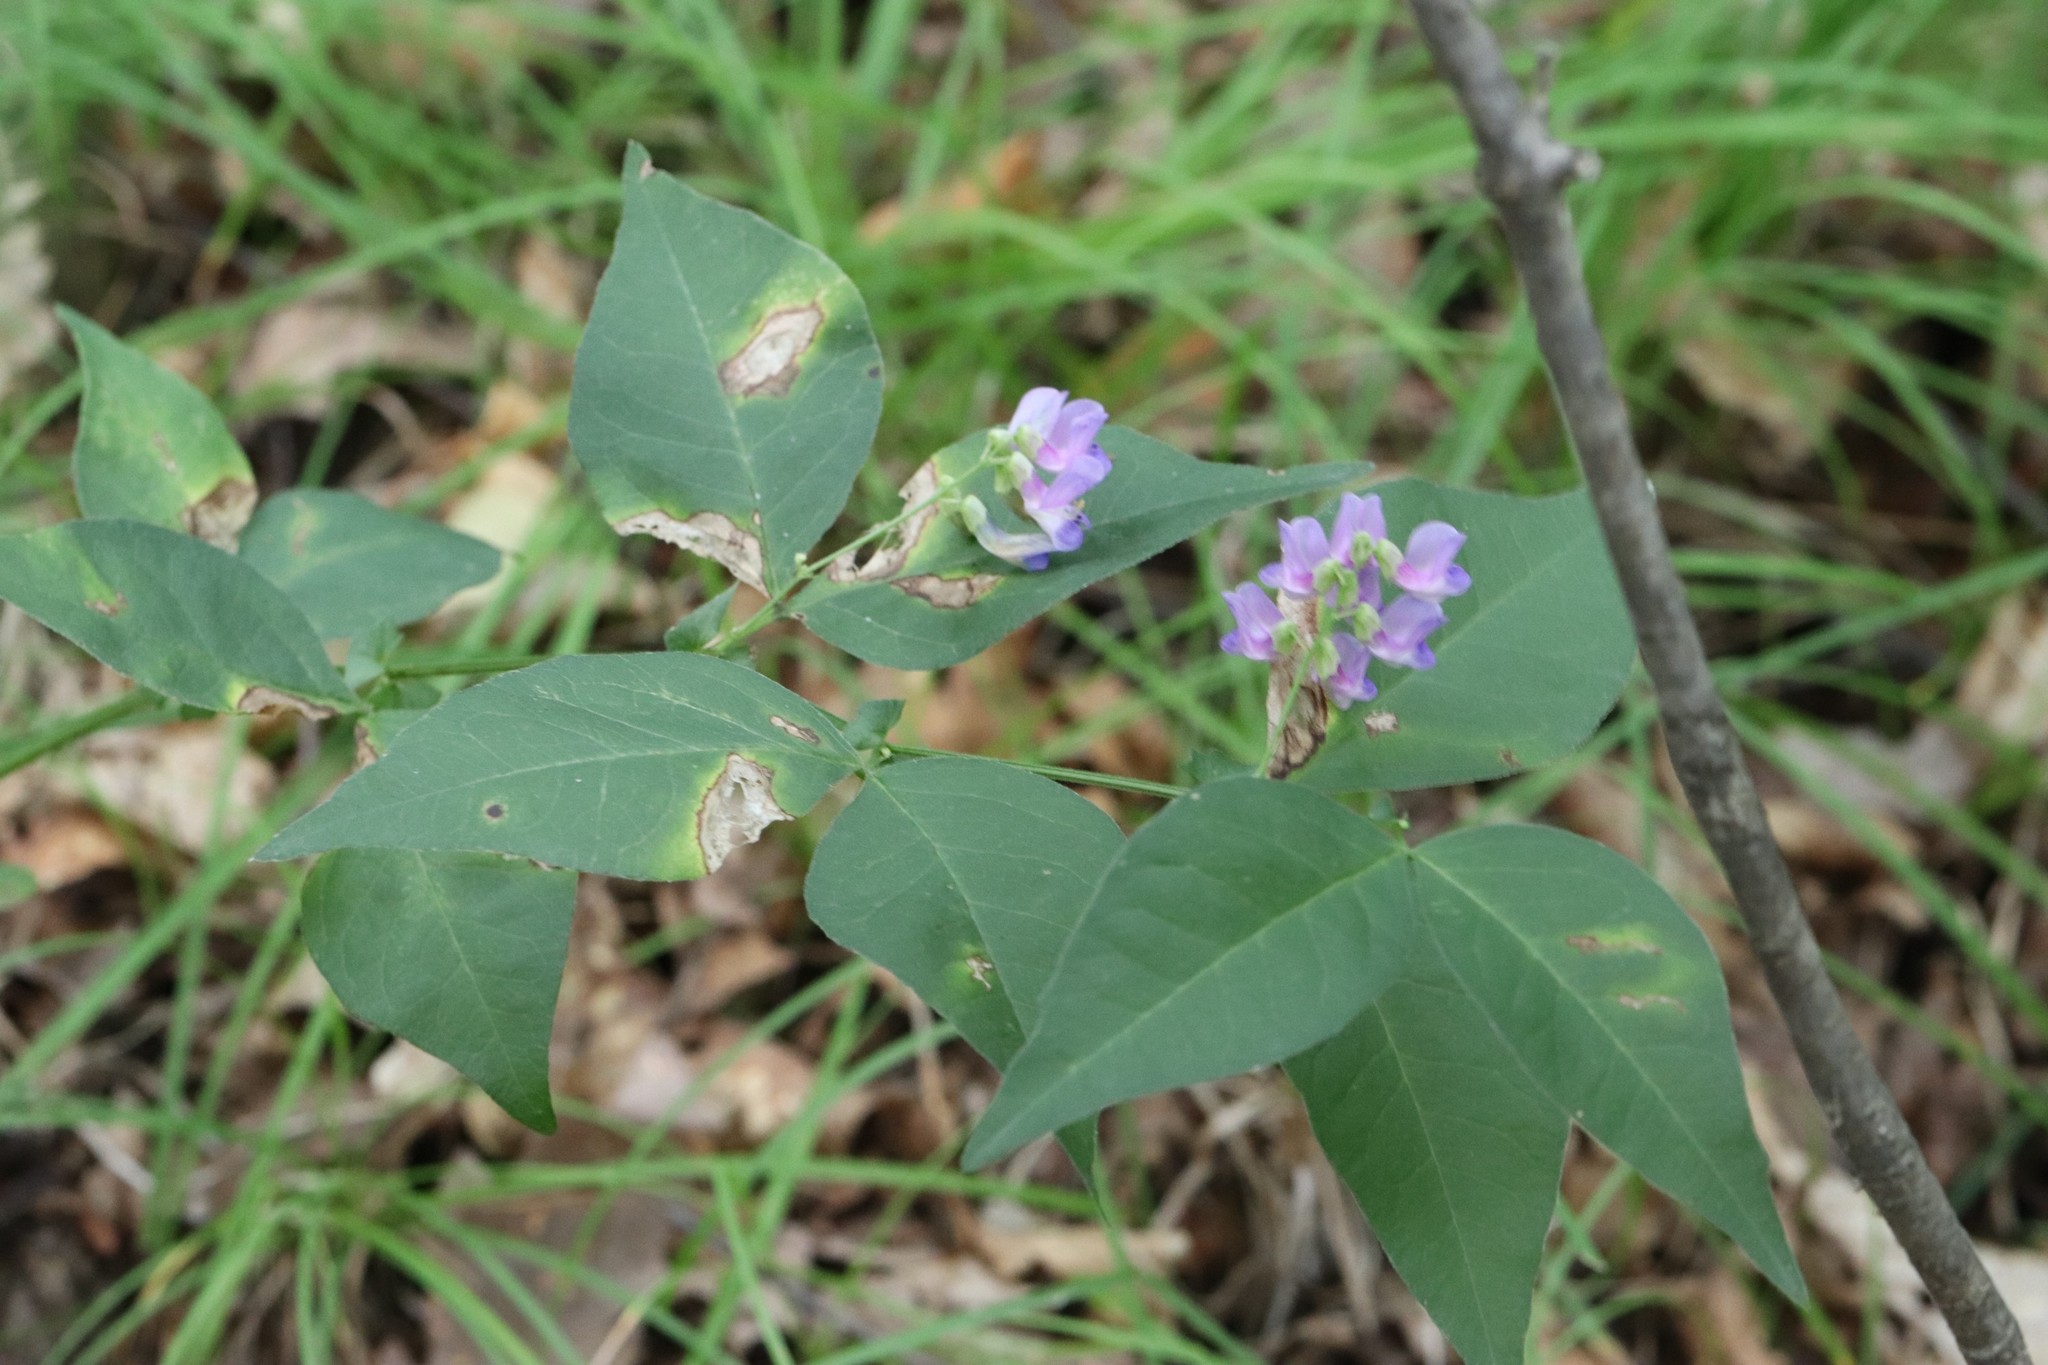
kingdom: Plantae
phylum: Tracheophyta
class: Magnoliopsida
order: Fabales
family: Fabaceae
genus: Vicia
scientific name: Vicia unijuga
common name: Two-leaf vetch
